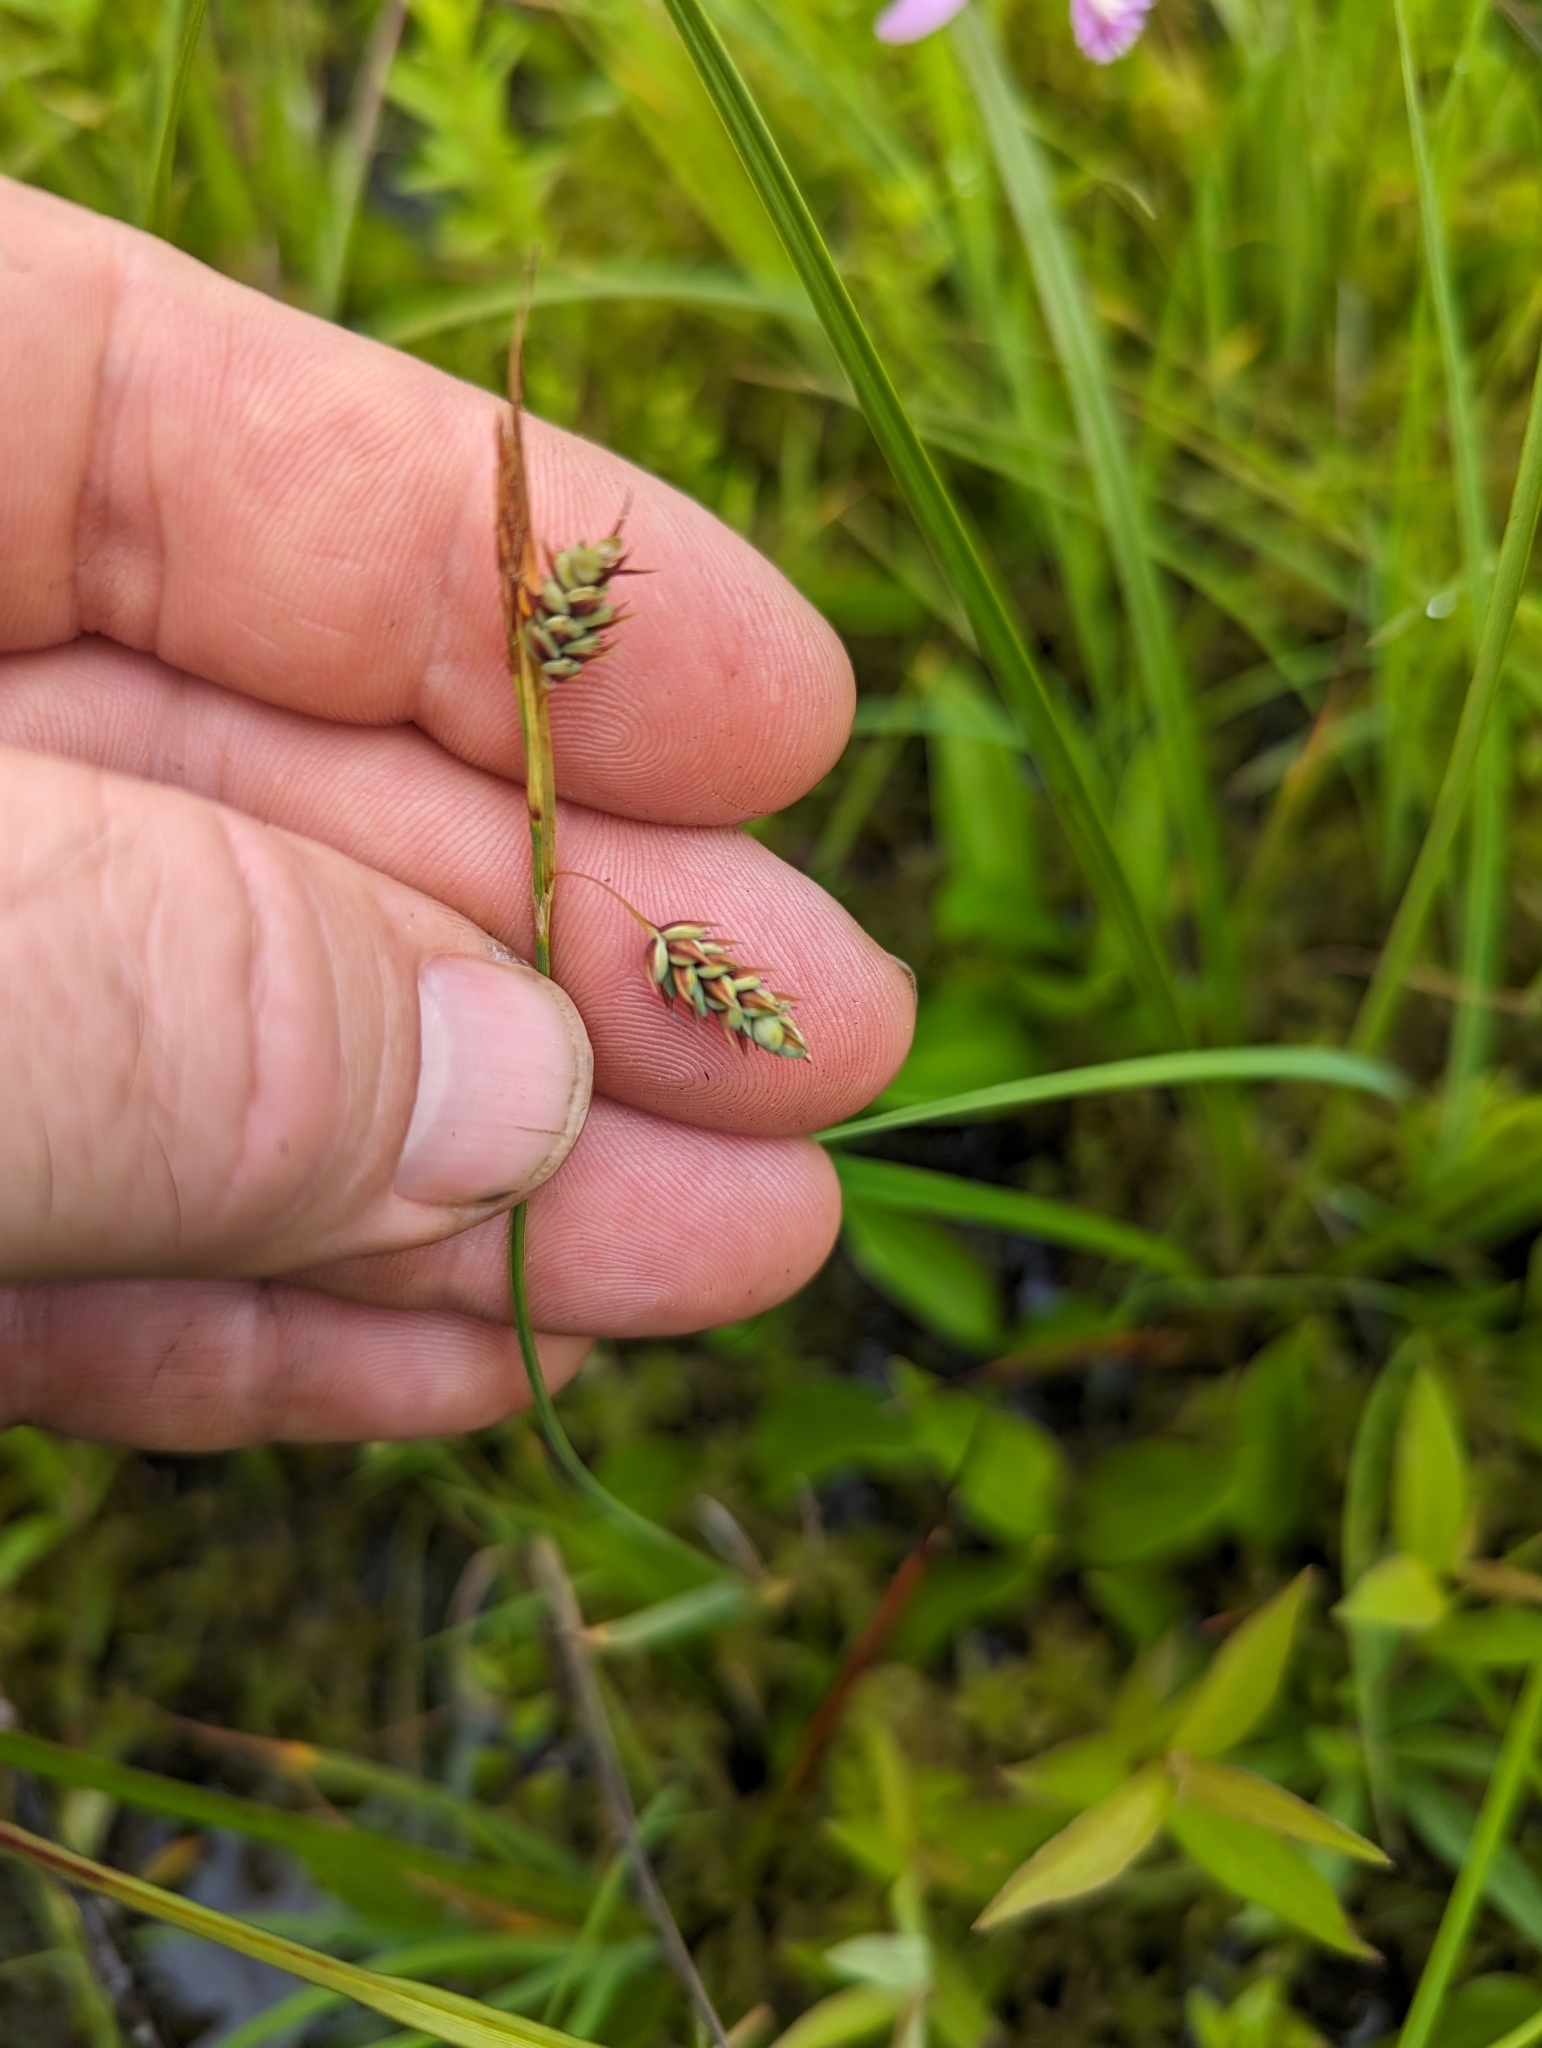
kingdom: Plantae
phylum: Tracheophyta
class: Liliopsida
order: Poales
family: Cyperaceae
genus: Carex
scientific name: Carex magellanica
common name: Bog sedge
